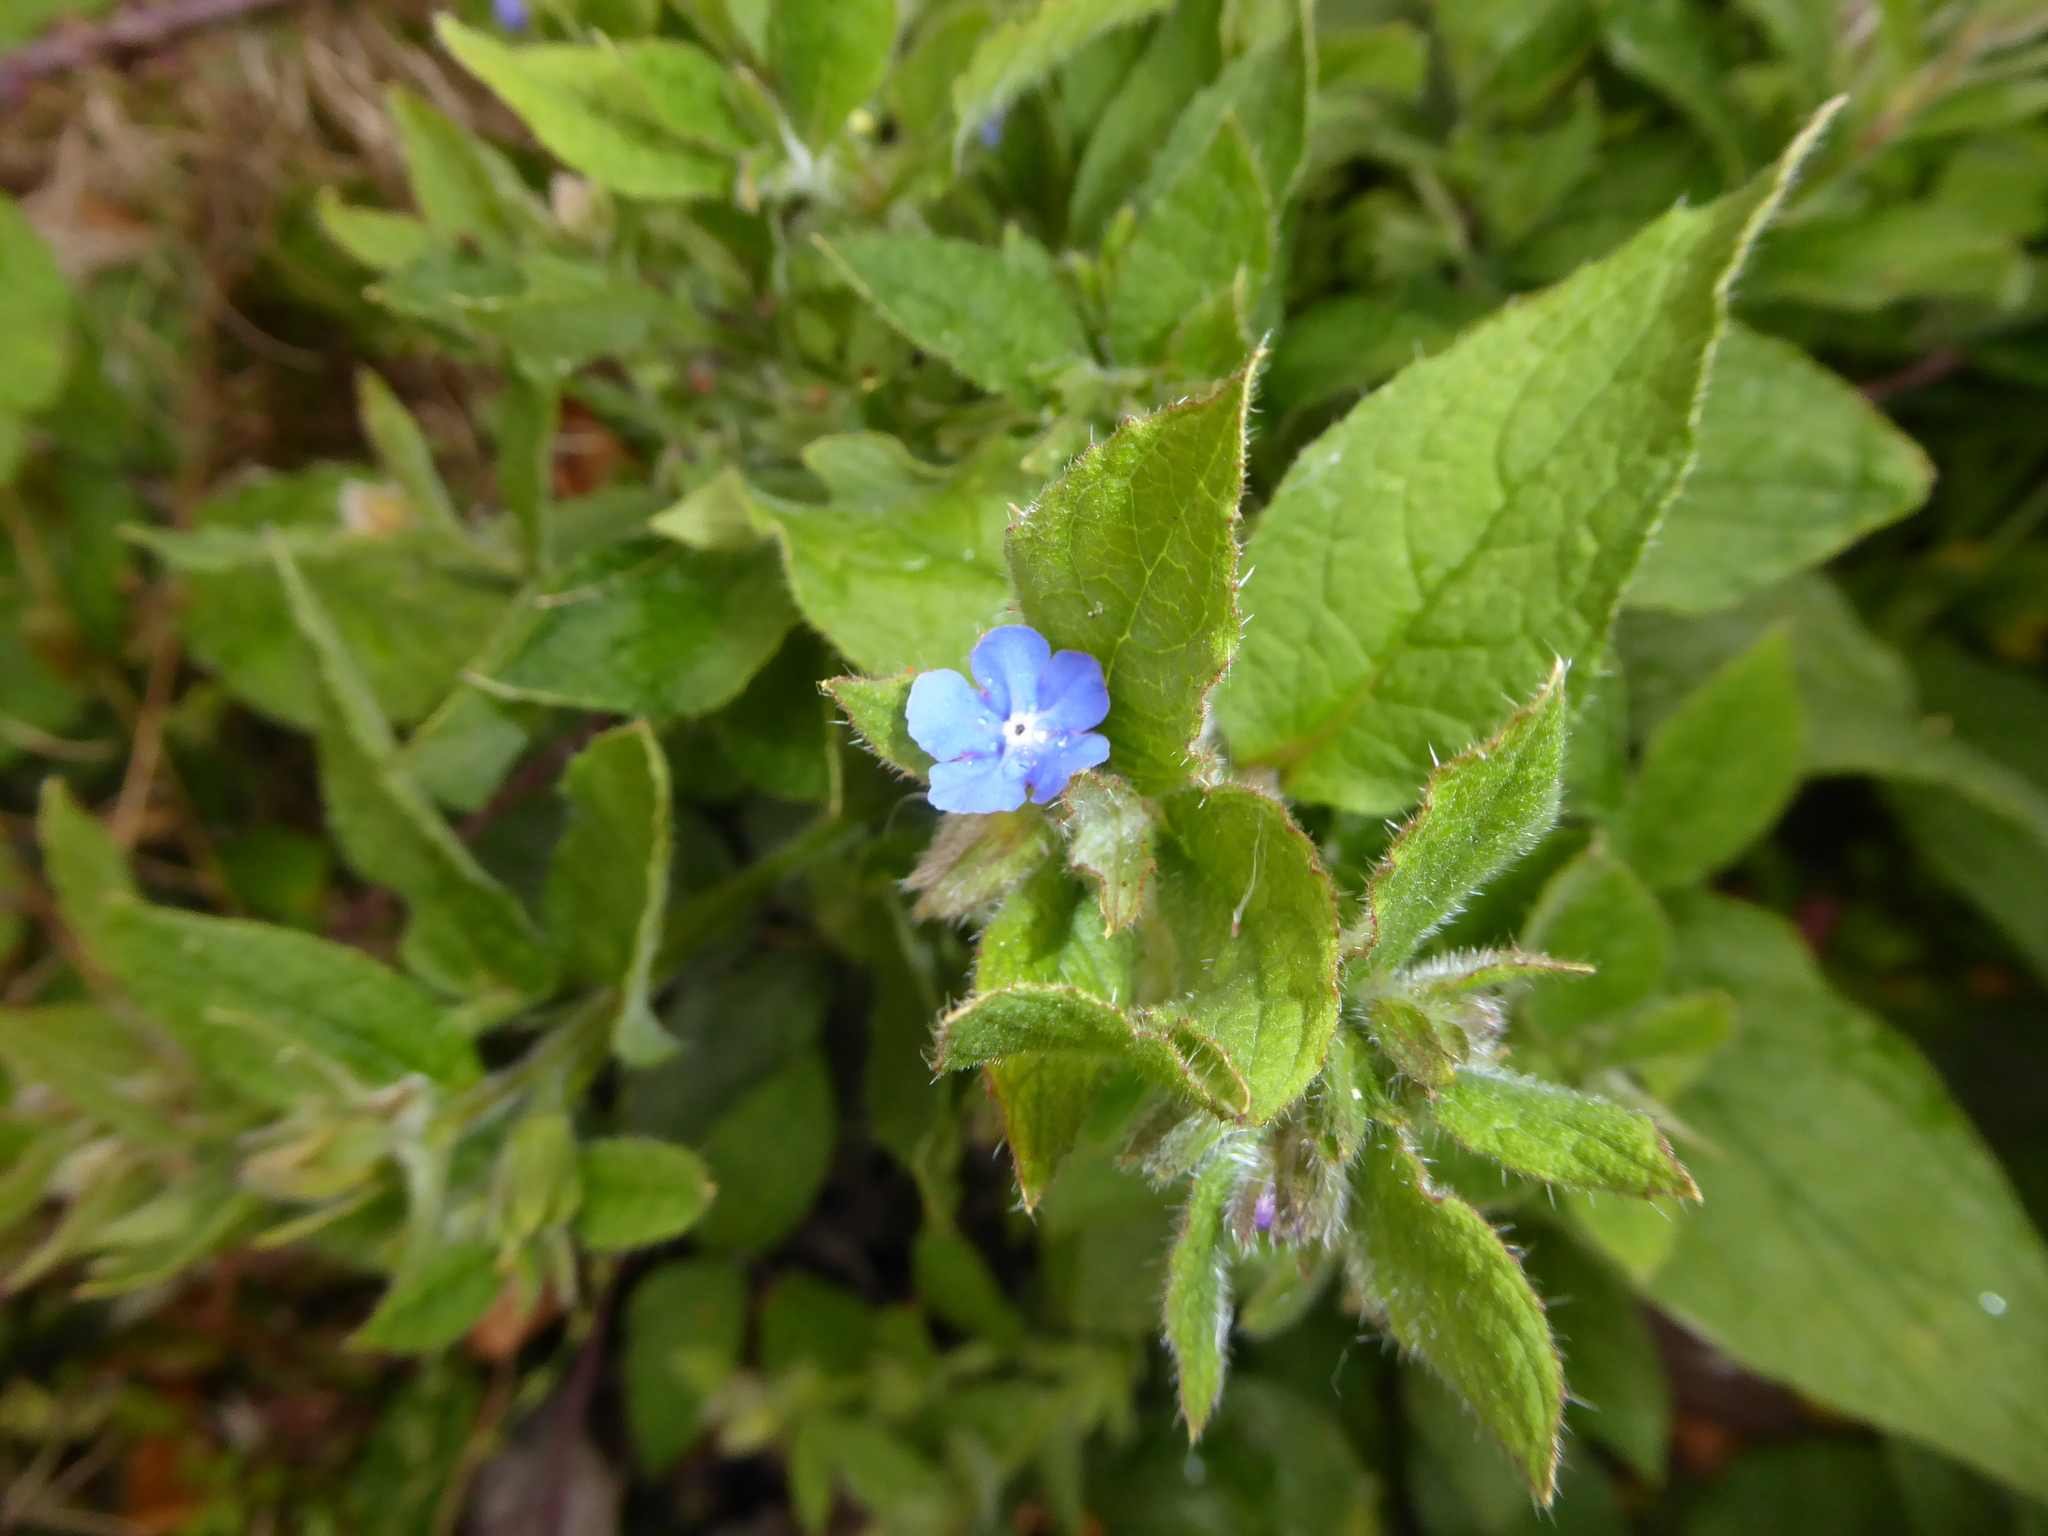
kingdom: Plantae
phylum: Tracheophyta
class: Magnoliopsida
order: Boraginales
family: Boraginaceae
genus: Pentaglottis
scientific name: Pentaglottis sempervirens
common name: Green alkanet
